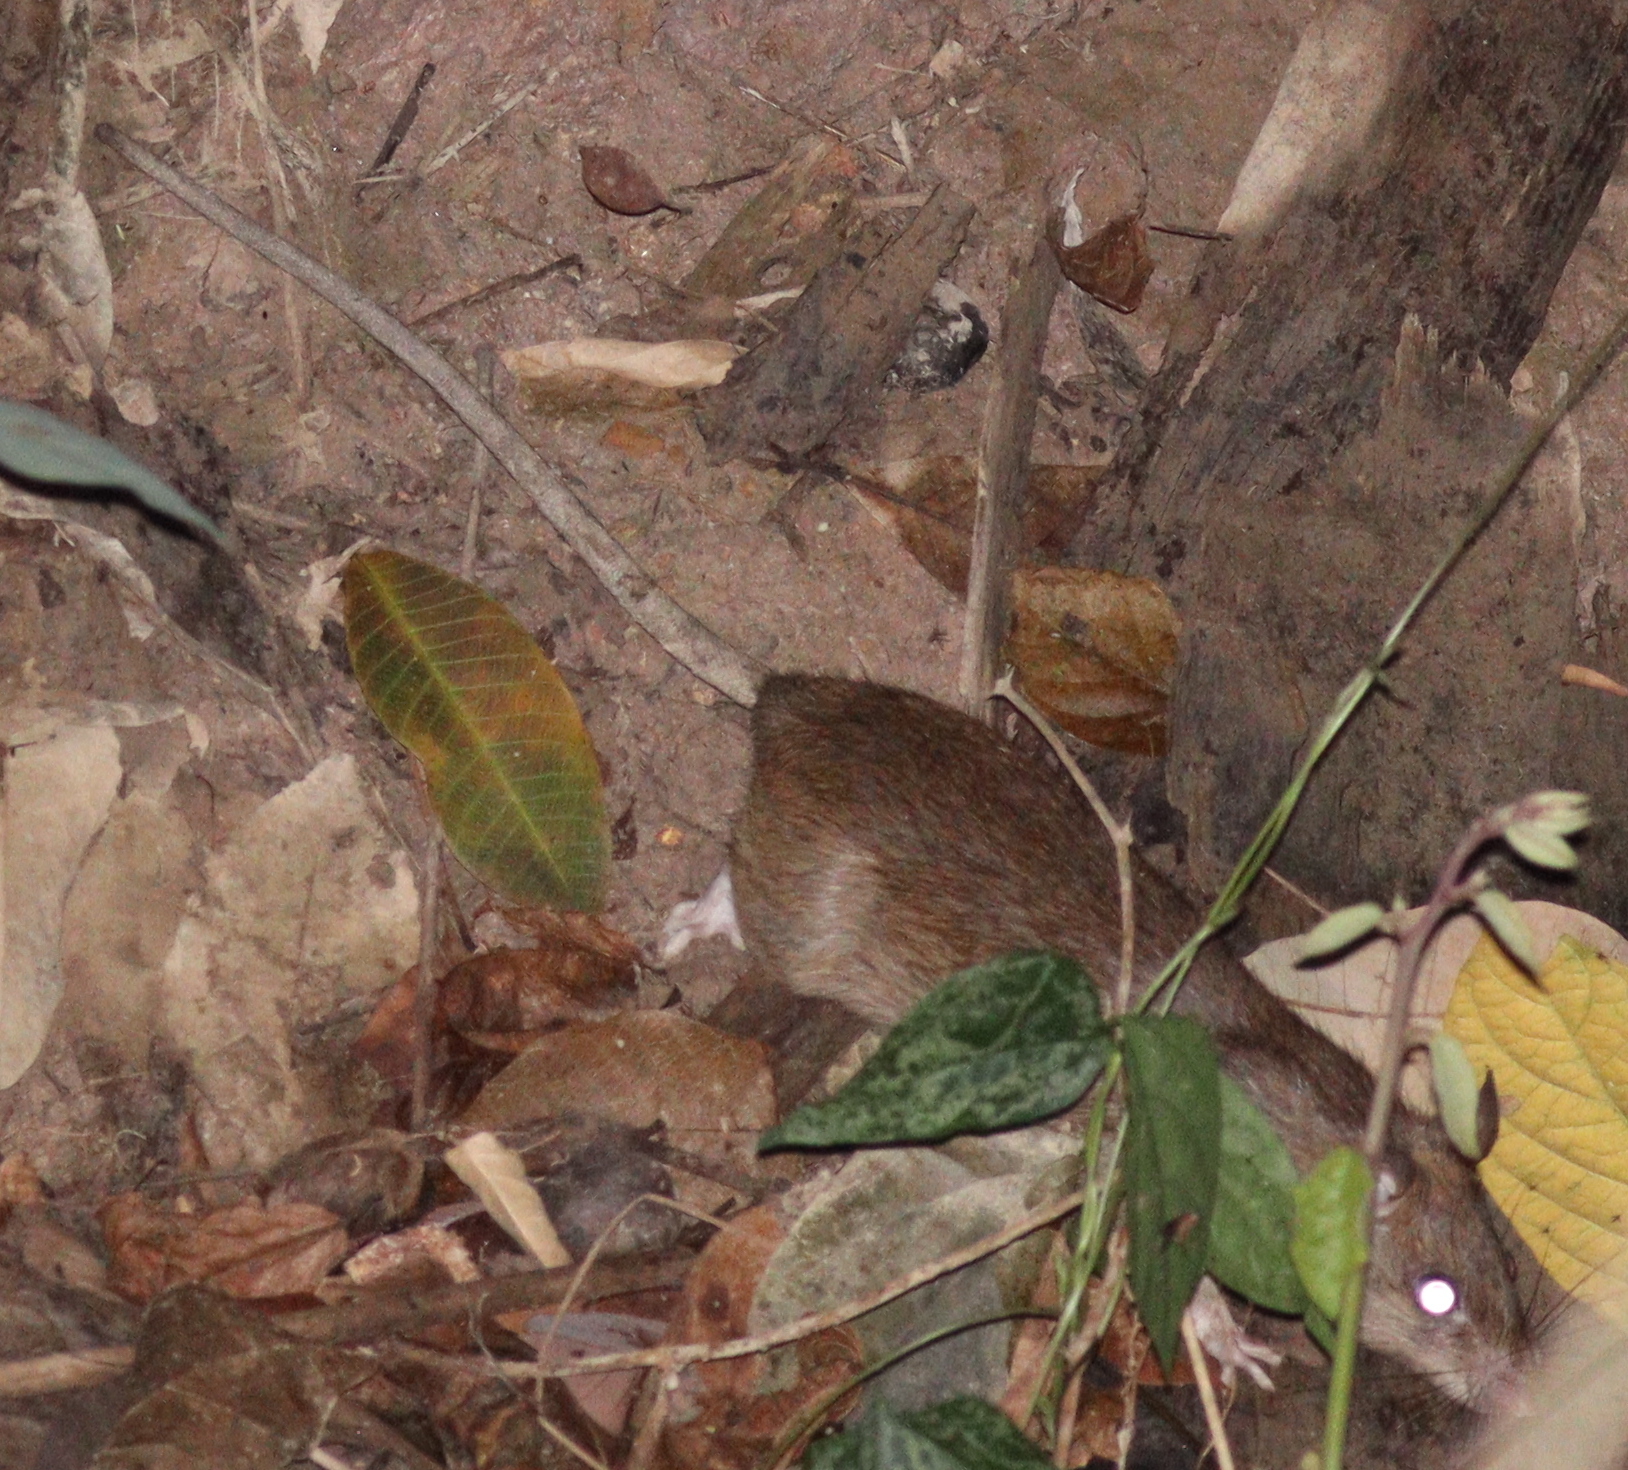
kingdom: Animalia
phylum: Chordata
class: Mammalia
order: Rodentia
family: Muridae
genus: Rattus
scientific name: Rattus losea
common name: Losea rat
